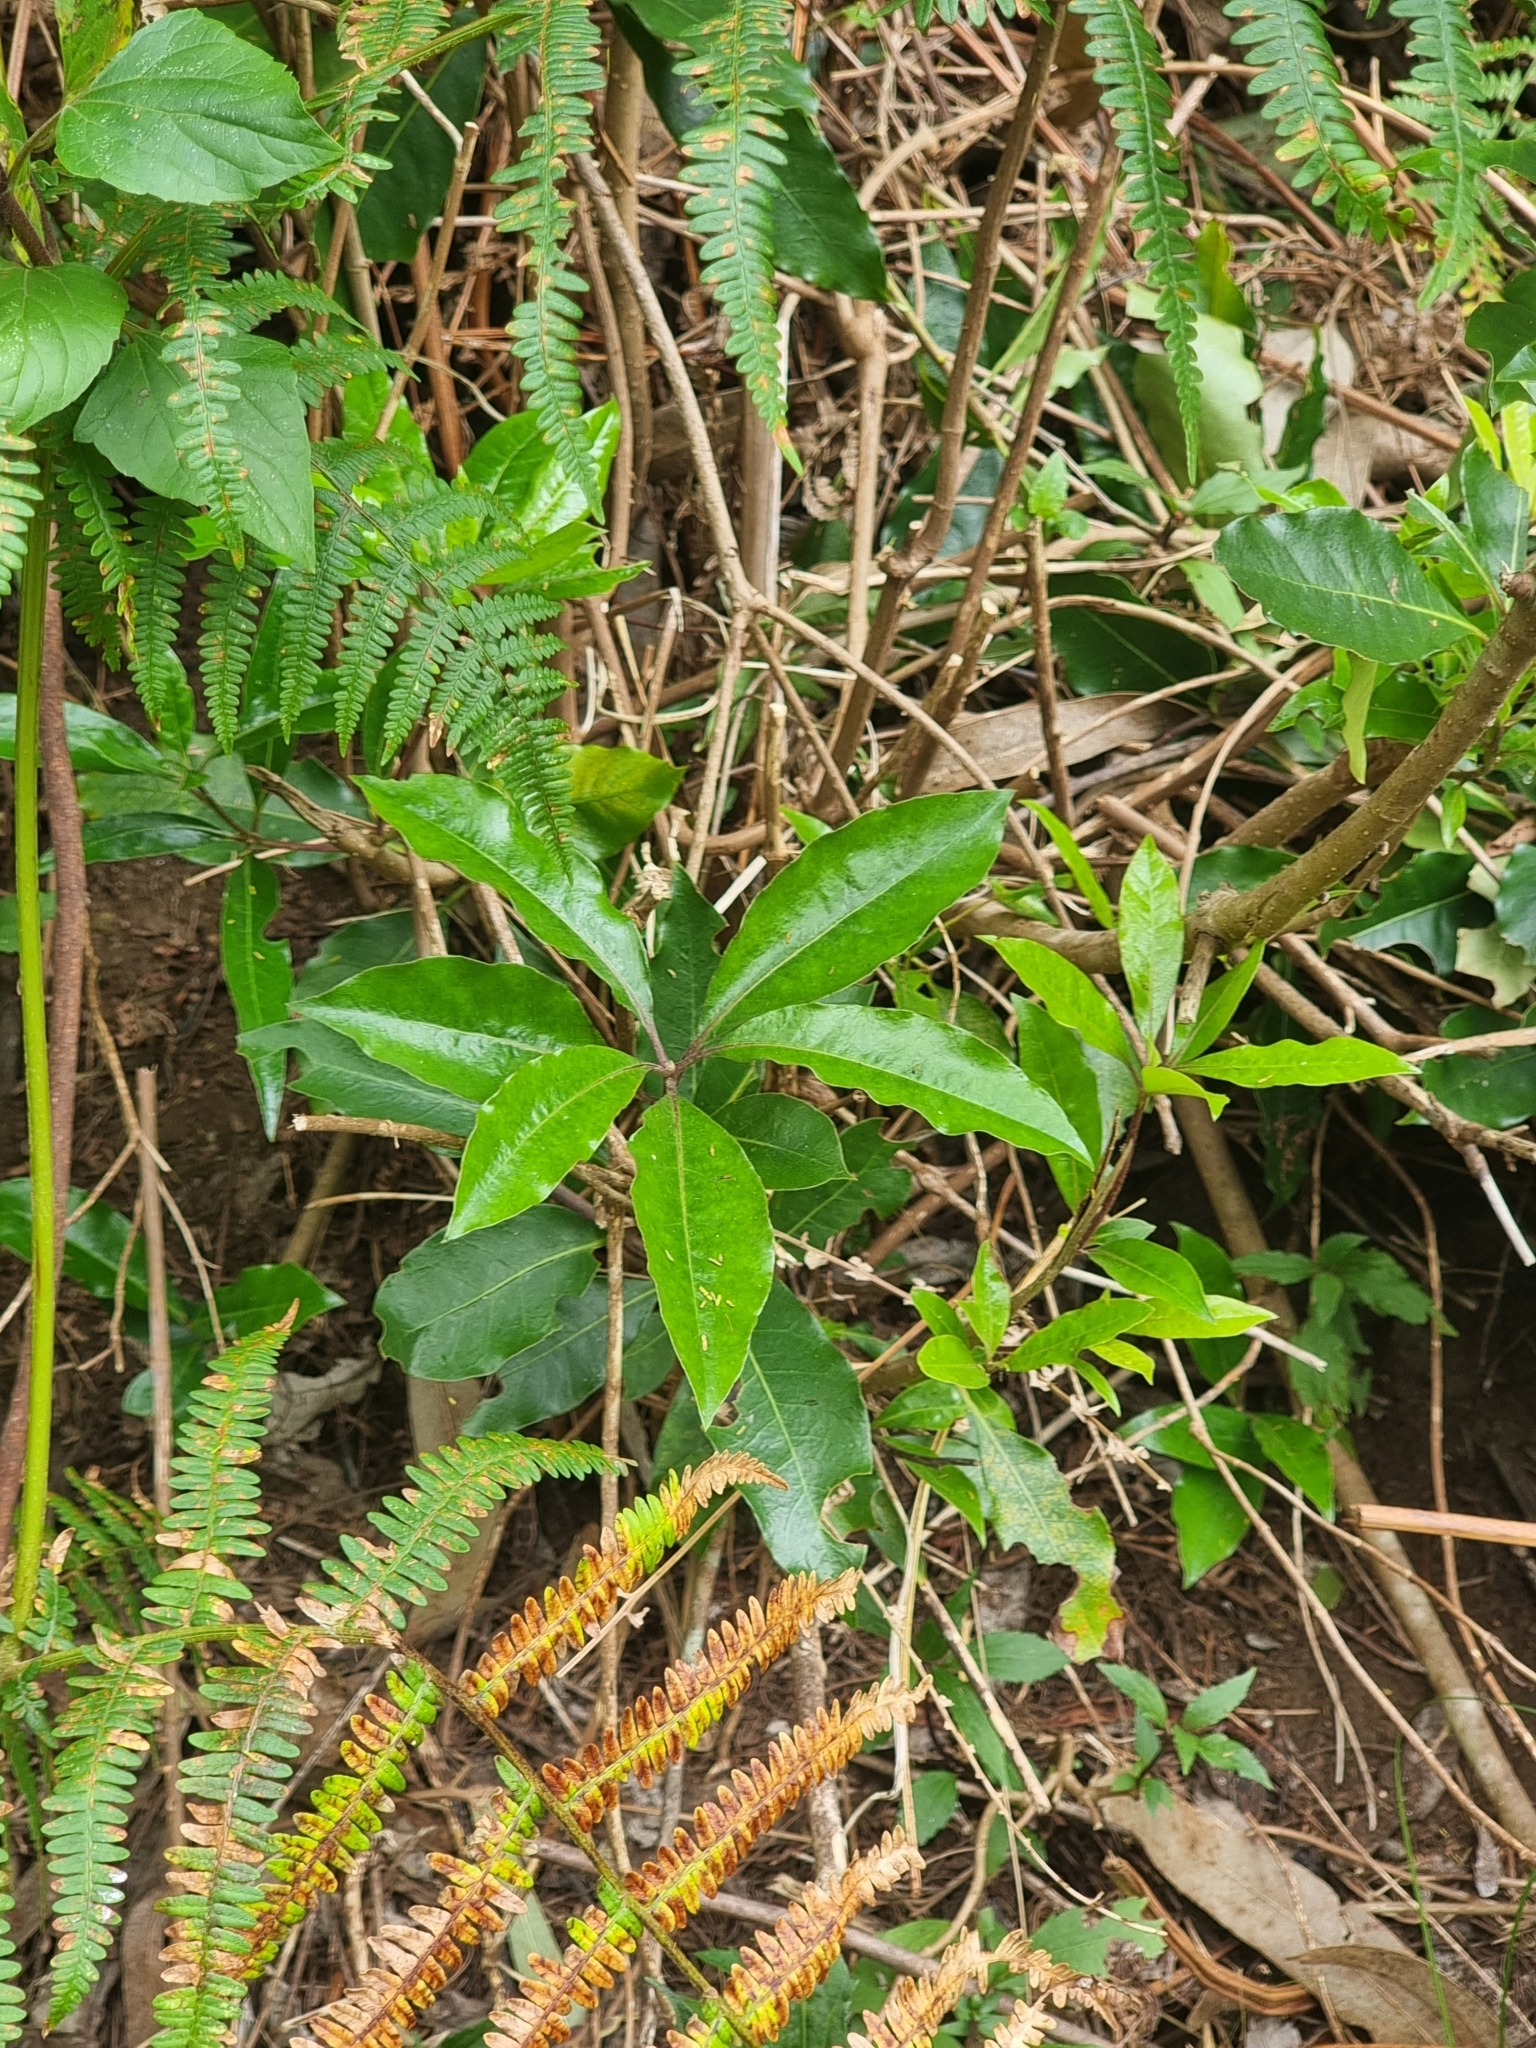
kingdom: Plantae
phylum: Tracheophyta
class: Magnoliopsida
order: Apiales
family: Pittosporaceae
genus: Pittosporum
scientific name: Pittosporum undulatum
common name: Australian cheesewood
